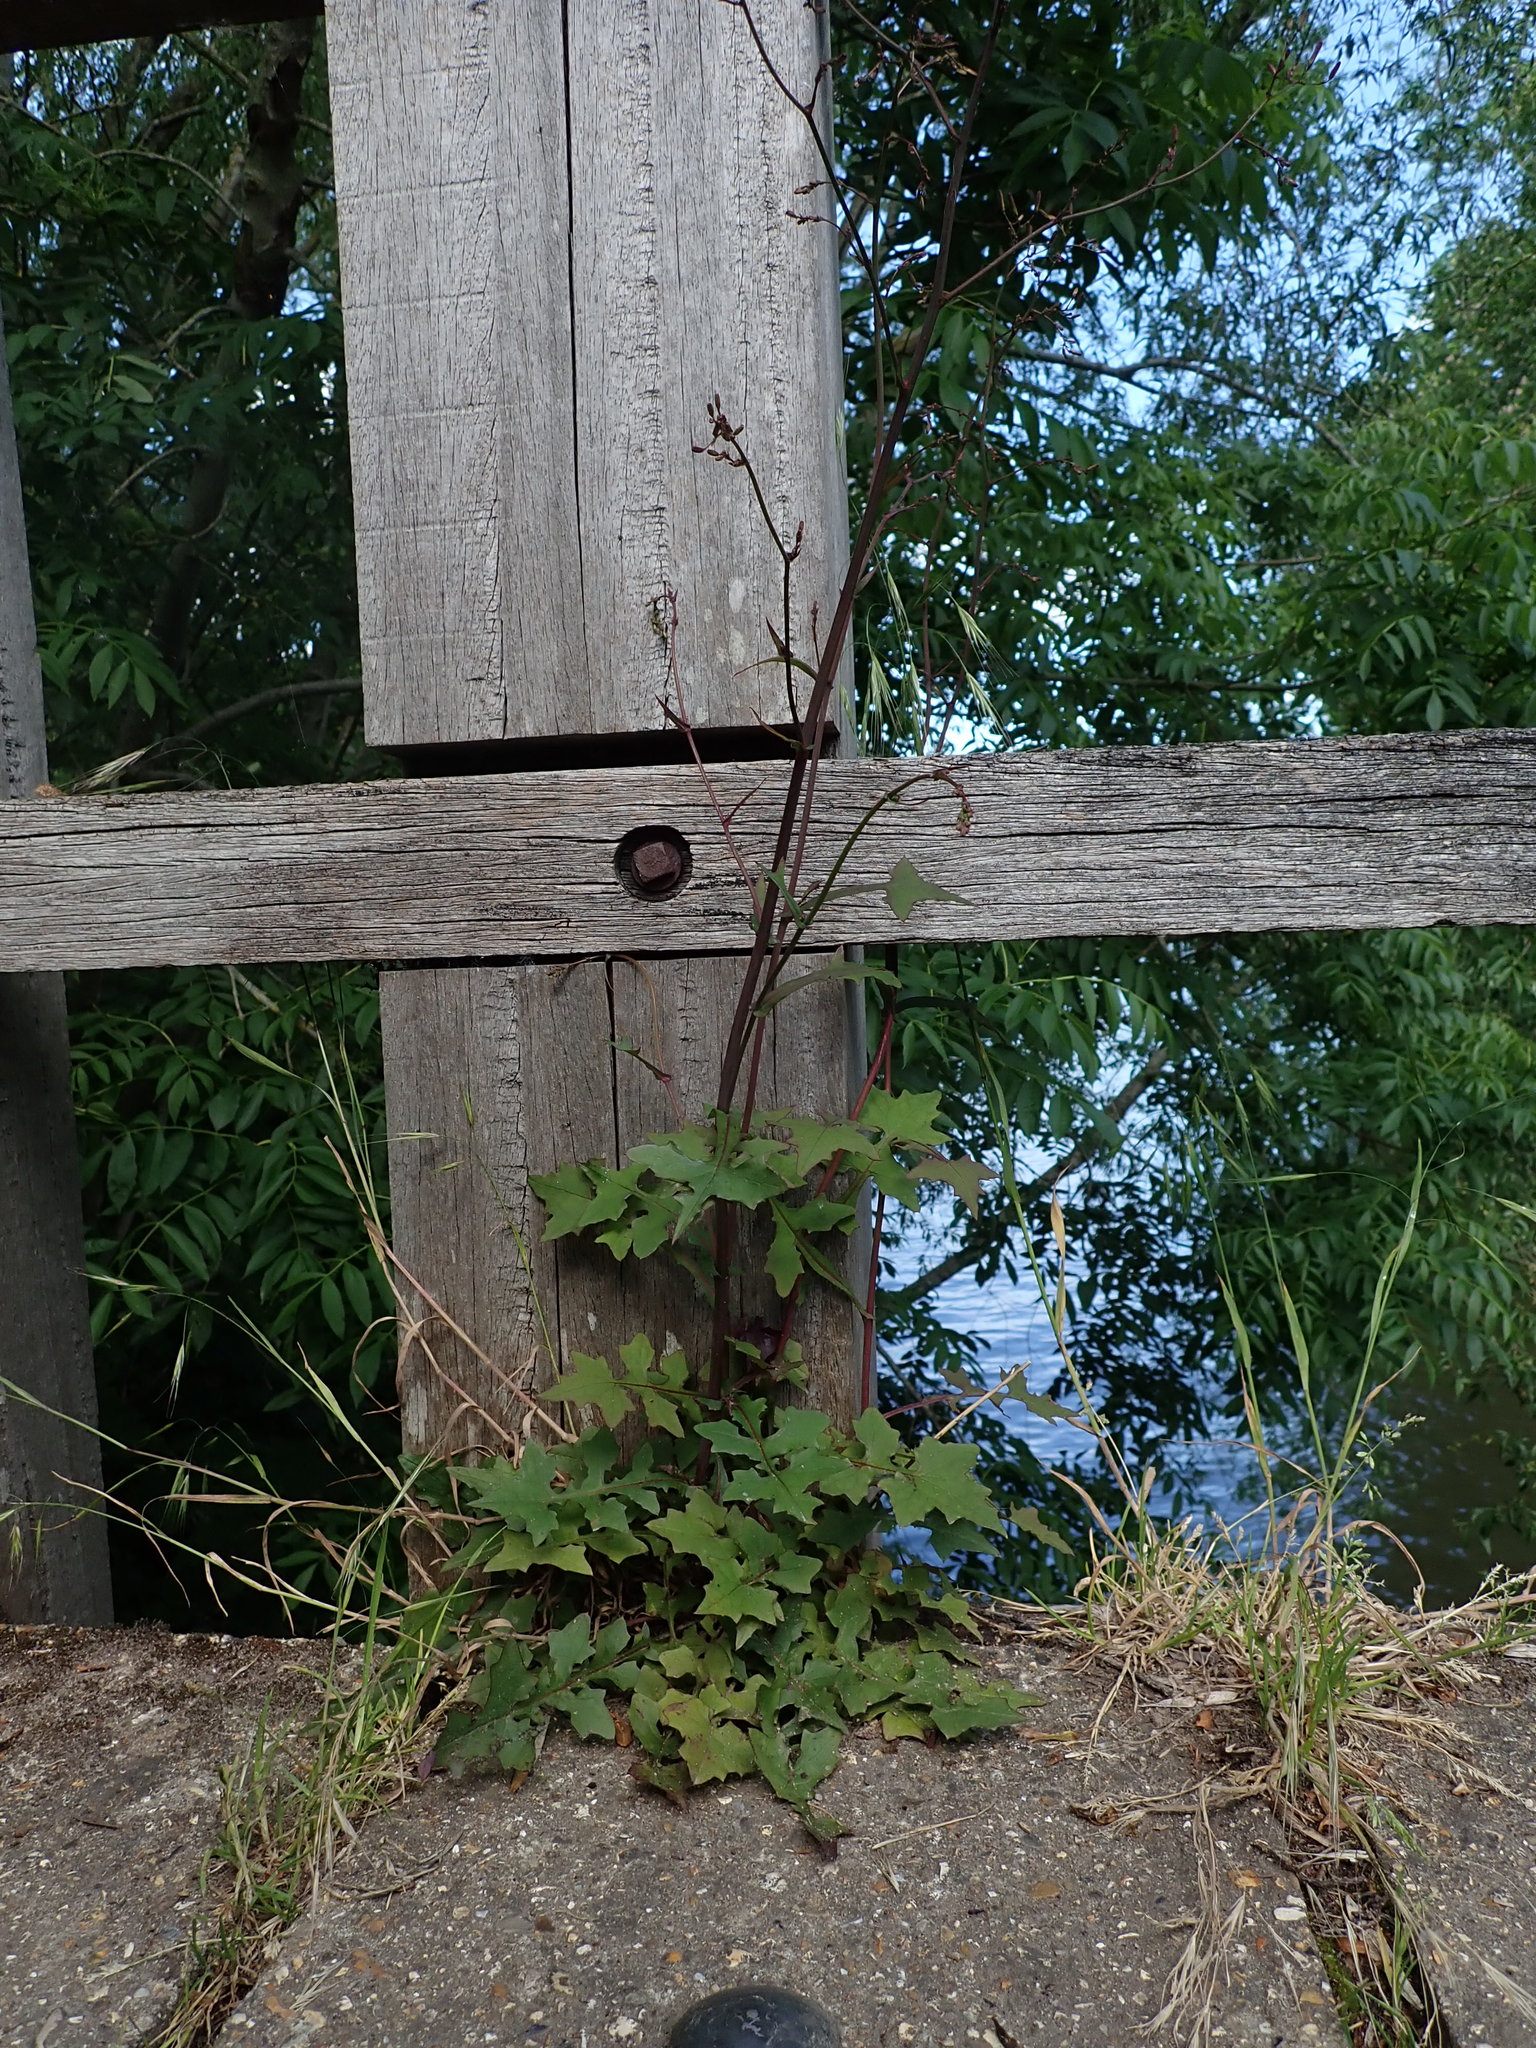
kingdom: Plantae
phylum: Tracheophyta
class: Magnoliopsida
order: Asterales
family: Asteraceae
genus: Mycelis
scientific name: Mycelis muralis
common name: Wall lettuce
